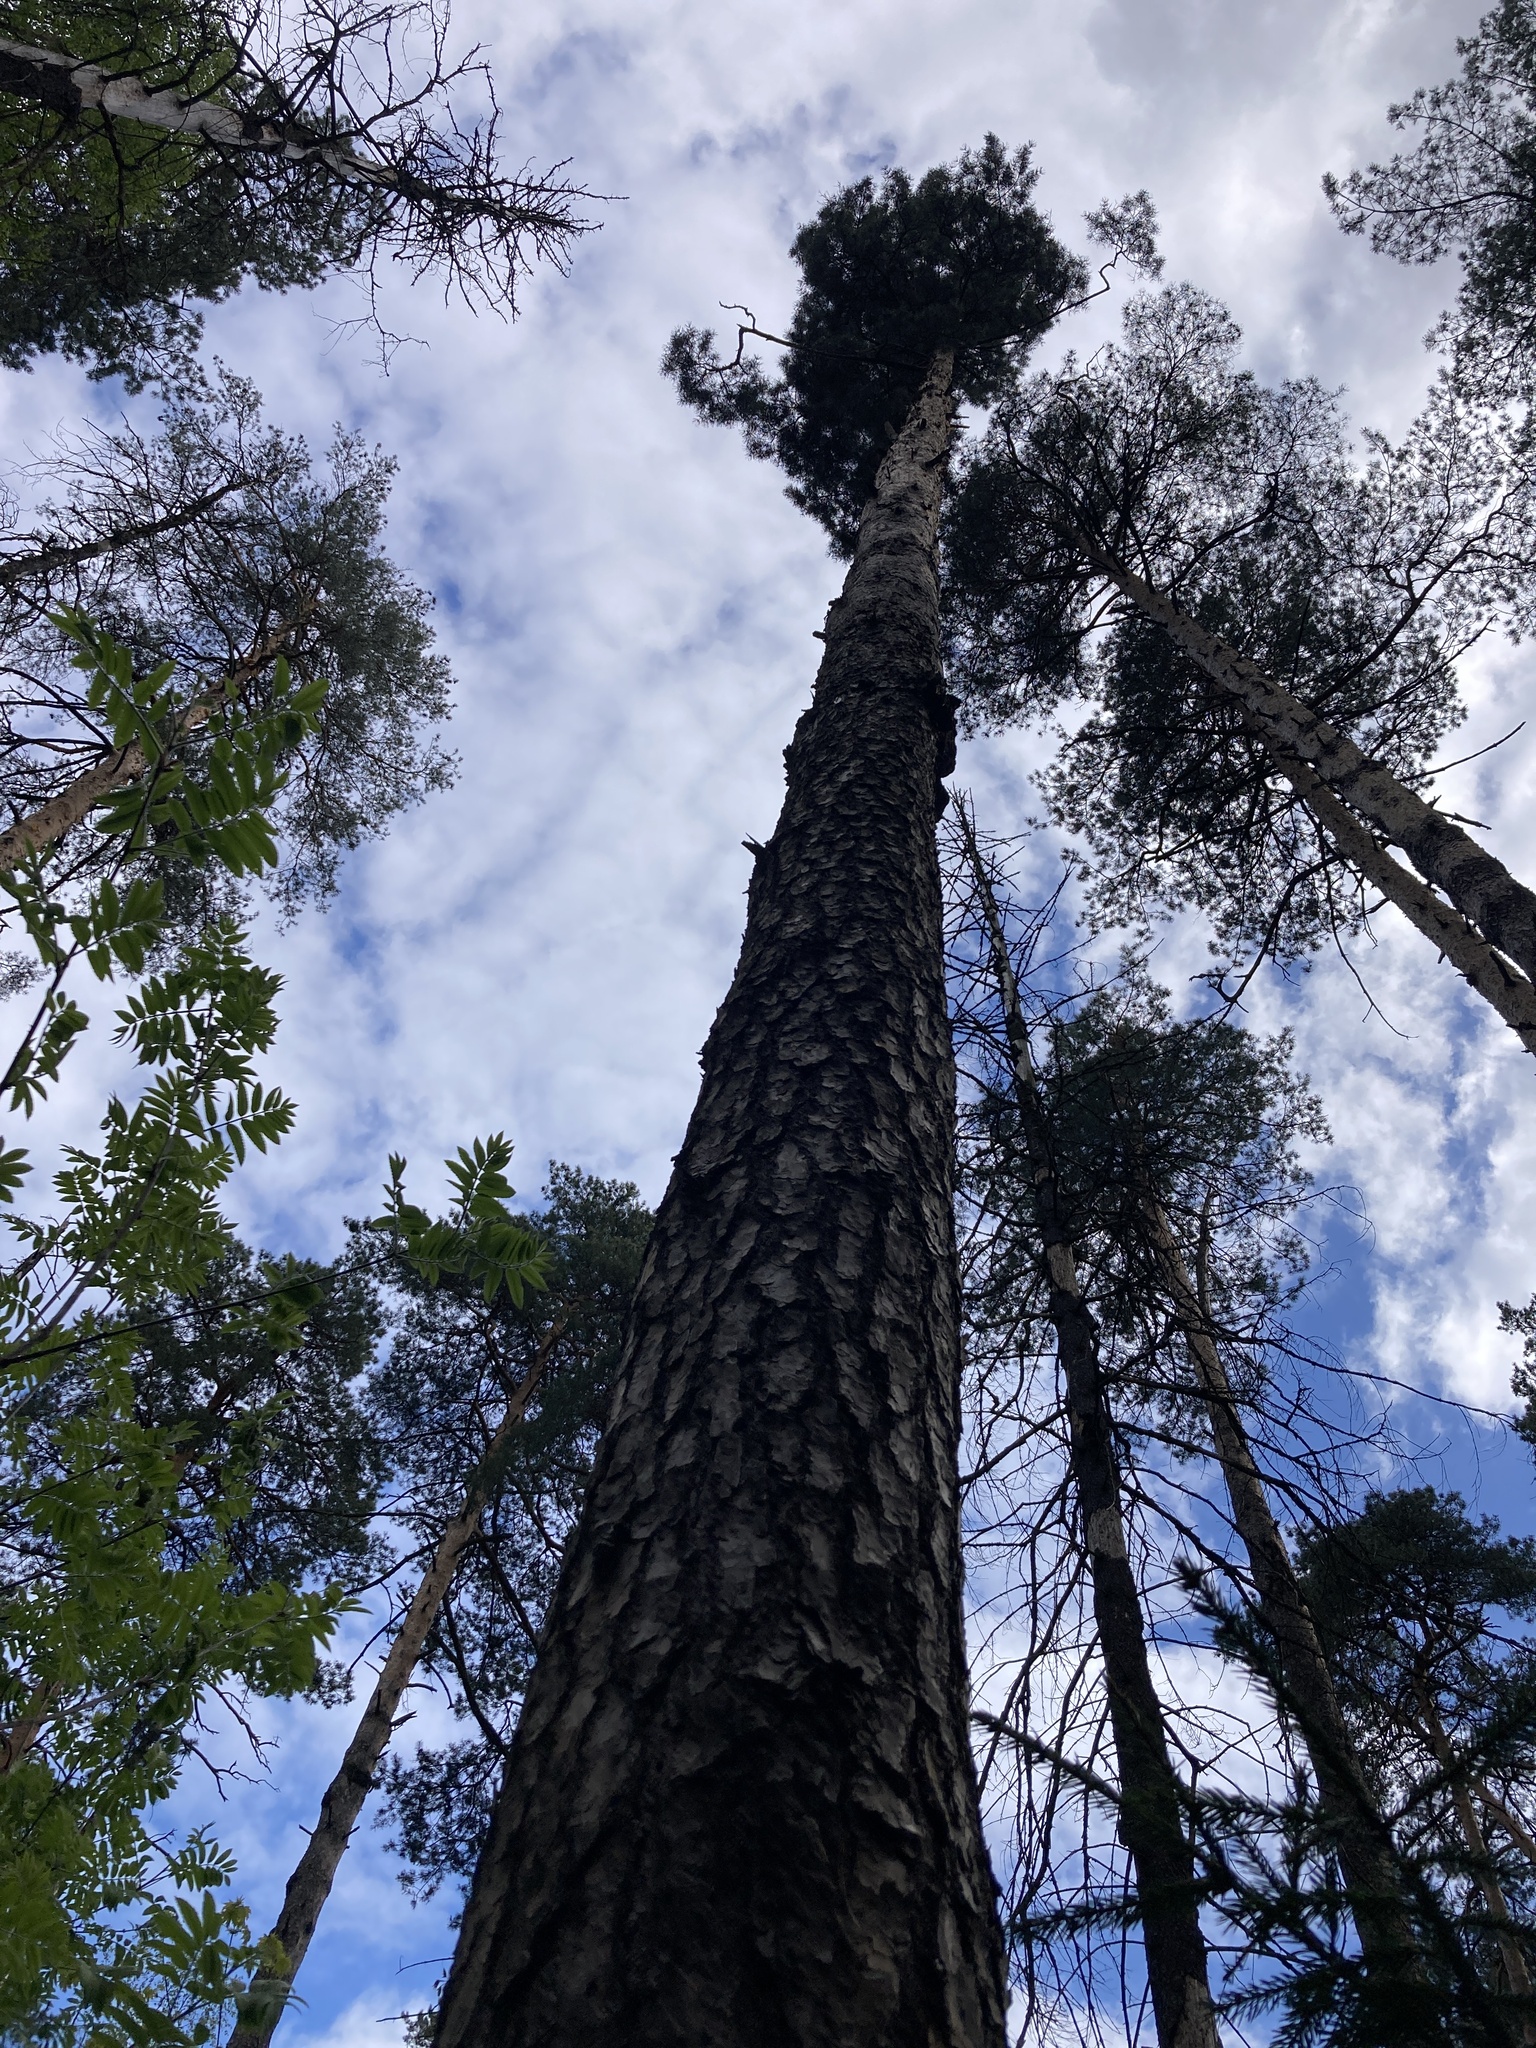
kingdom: Plantae
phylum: Tracheophyta
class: Pinopsida
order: Pinales
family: Pinaceae
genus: Pinus
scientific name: Pinus sylvestris
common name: Scots pine
